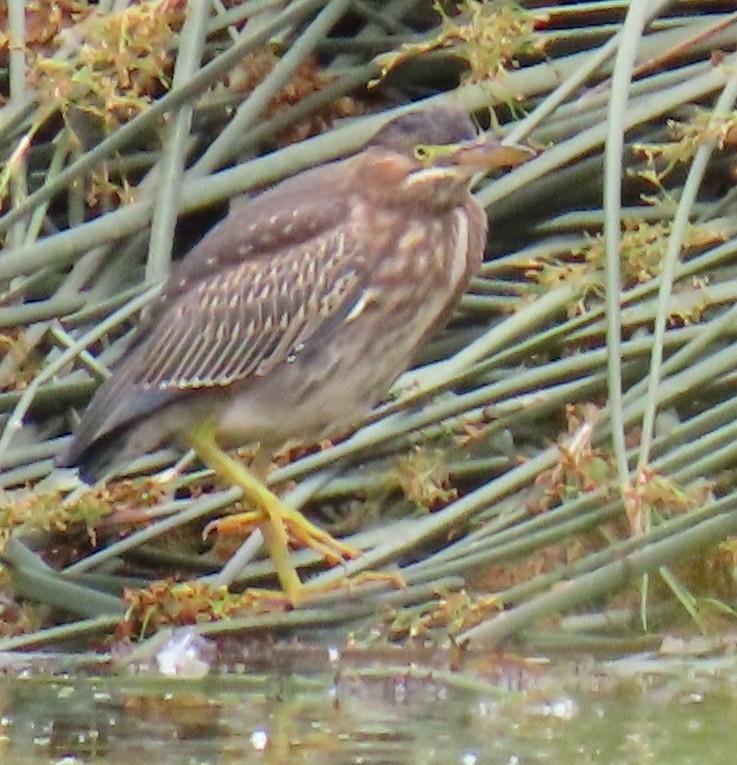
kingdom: Animalia
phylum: Chordata
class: Aves
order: Pelecaniformes
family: Ardeidae
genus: Butorides
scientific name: Butorides virescens
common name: Green heron
